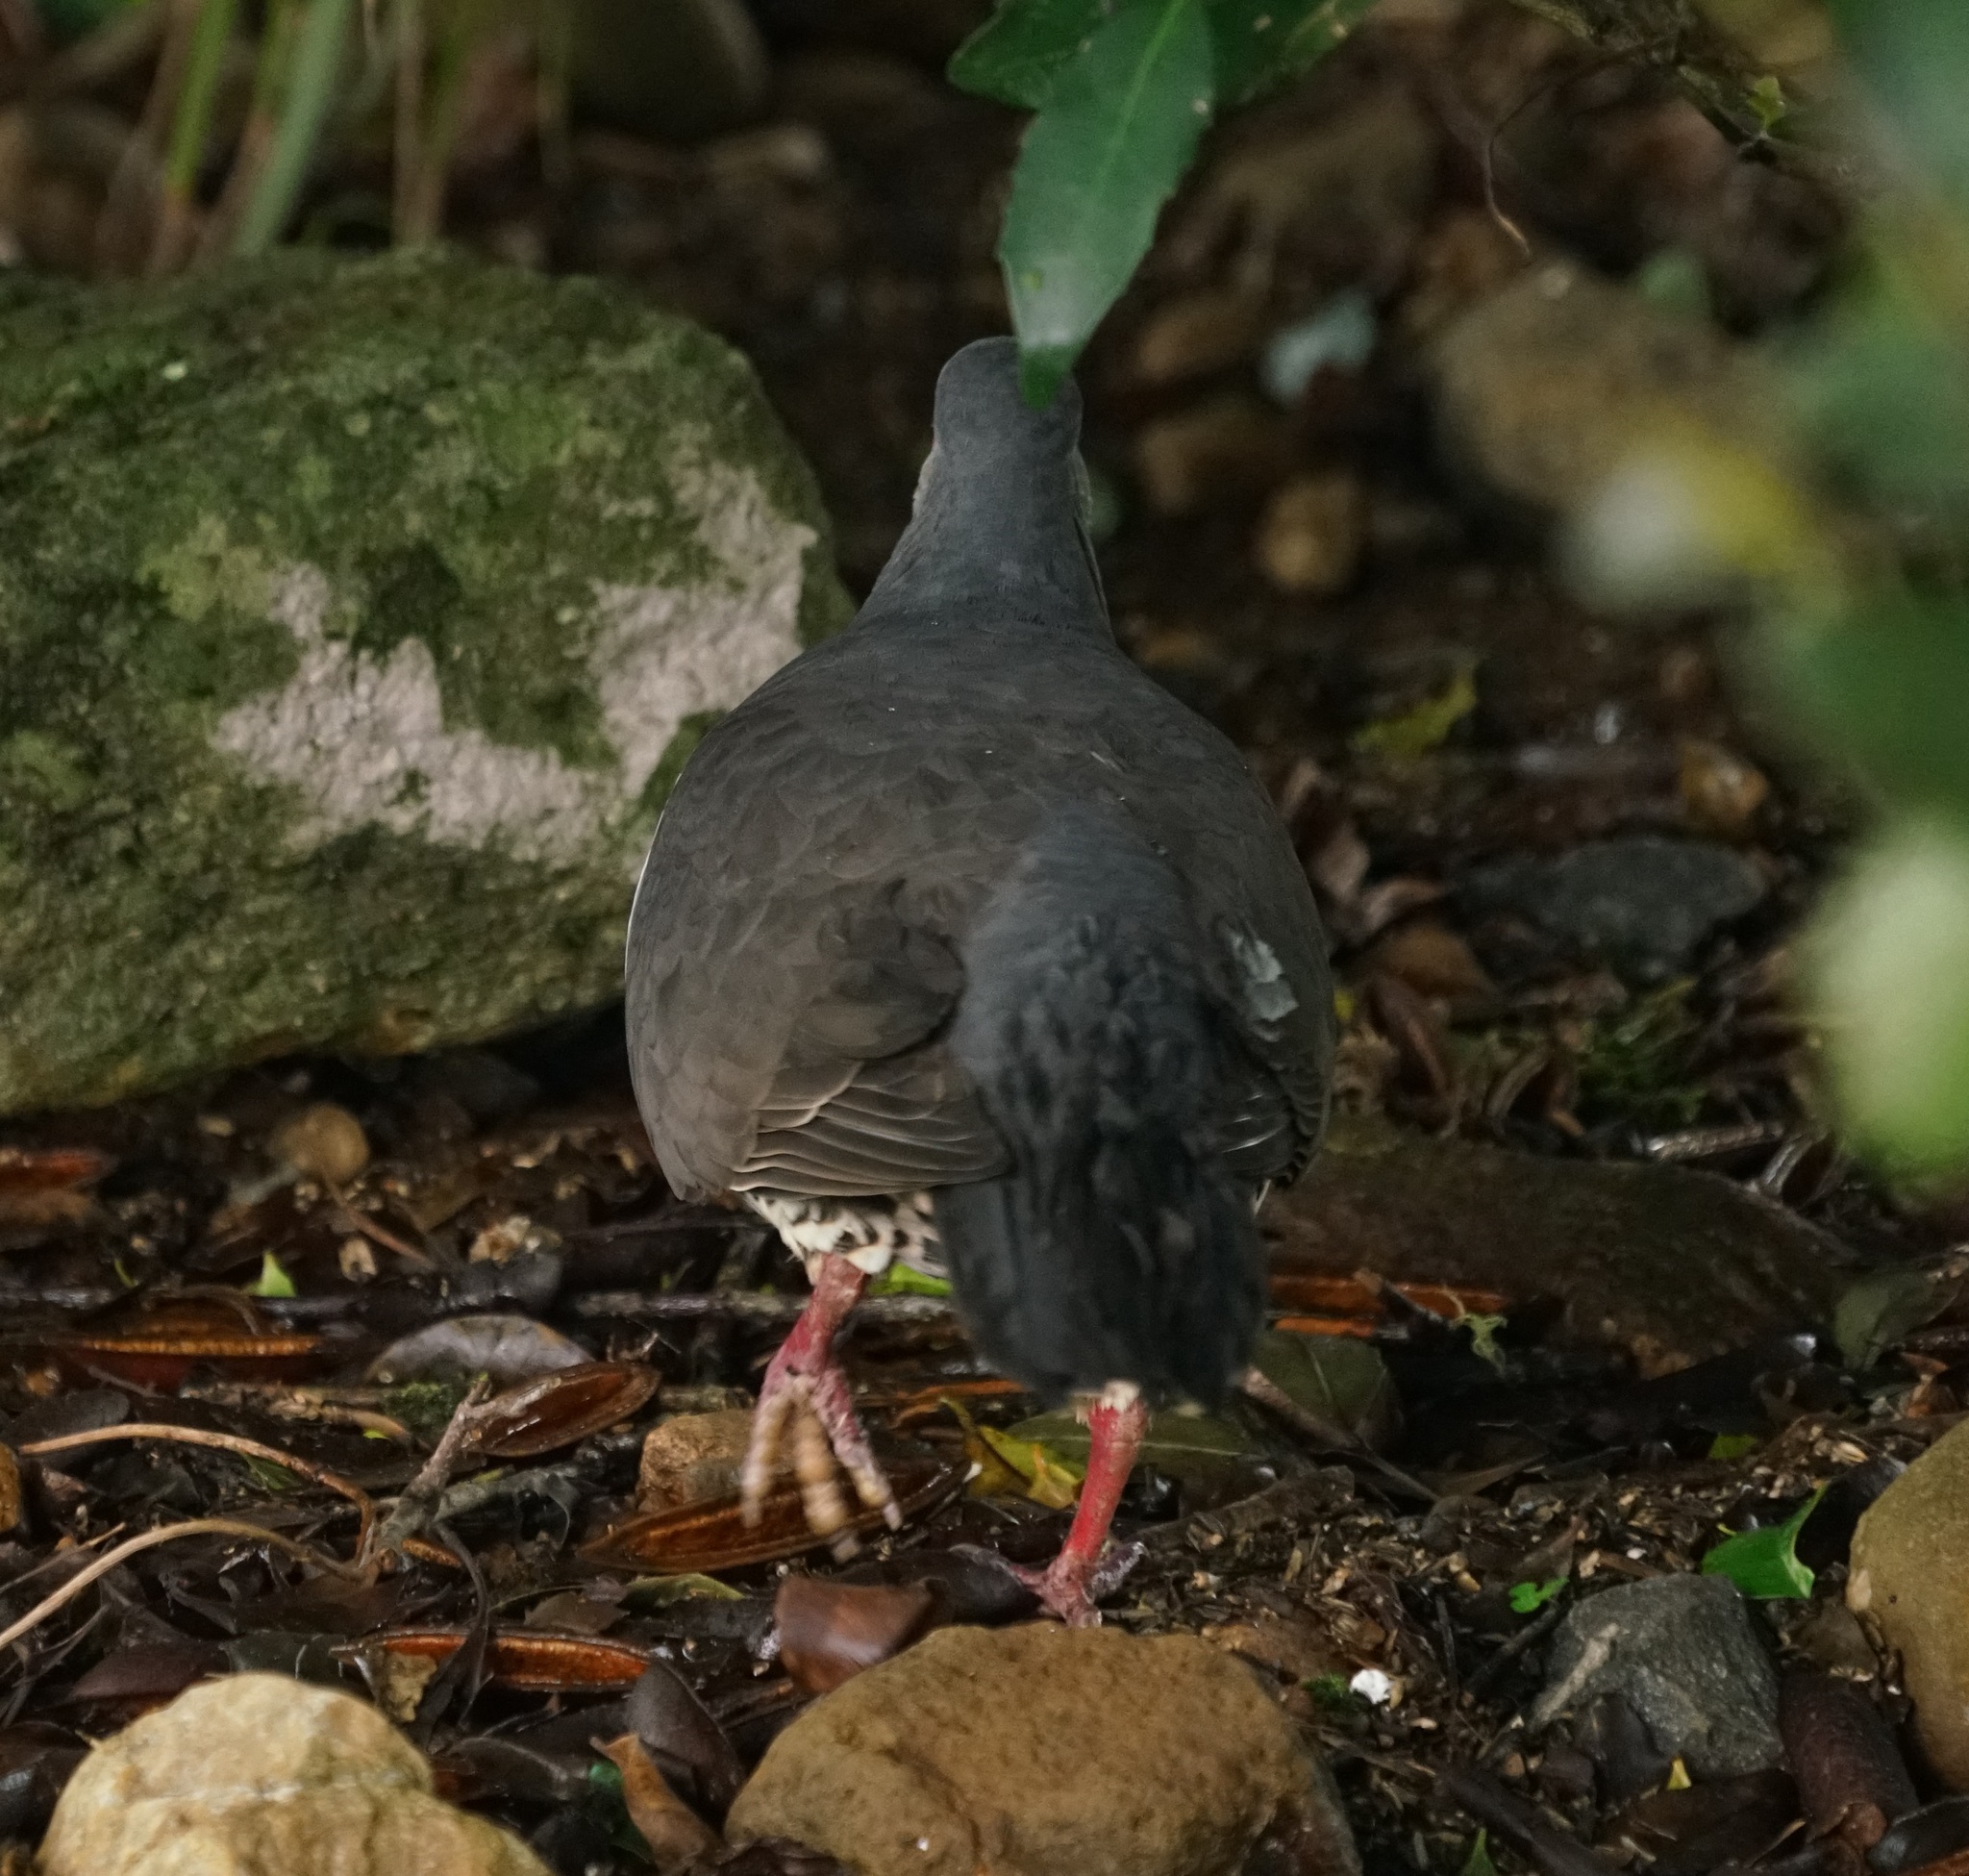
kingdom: Animalia
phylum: Chordata
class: Aves
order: Columbiformes
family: Columbidae
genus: Leucosarcia
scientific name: Leucosarcia melanoleuca
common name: Wonga pigeon
